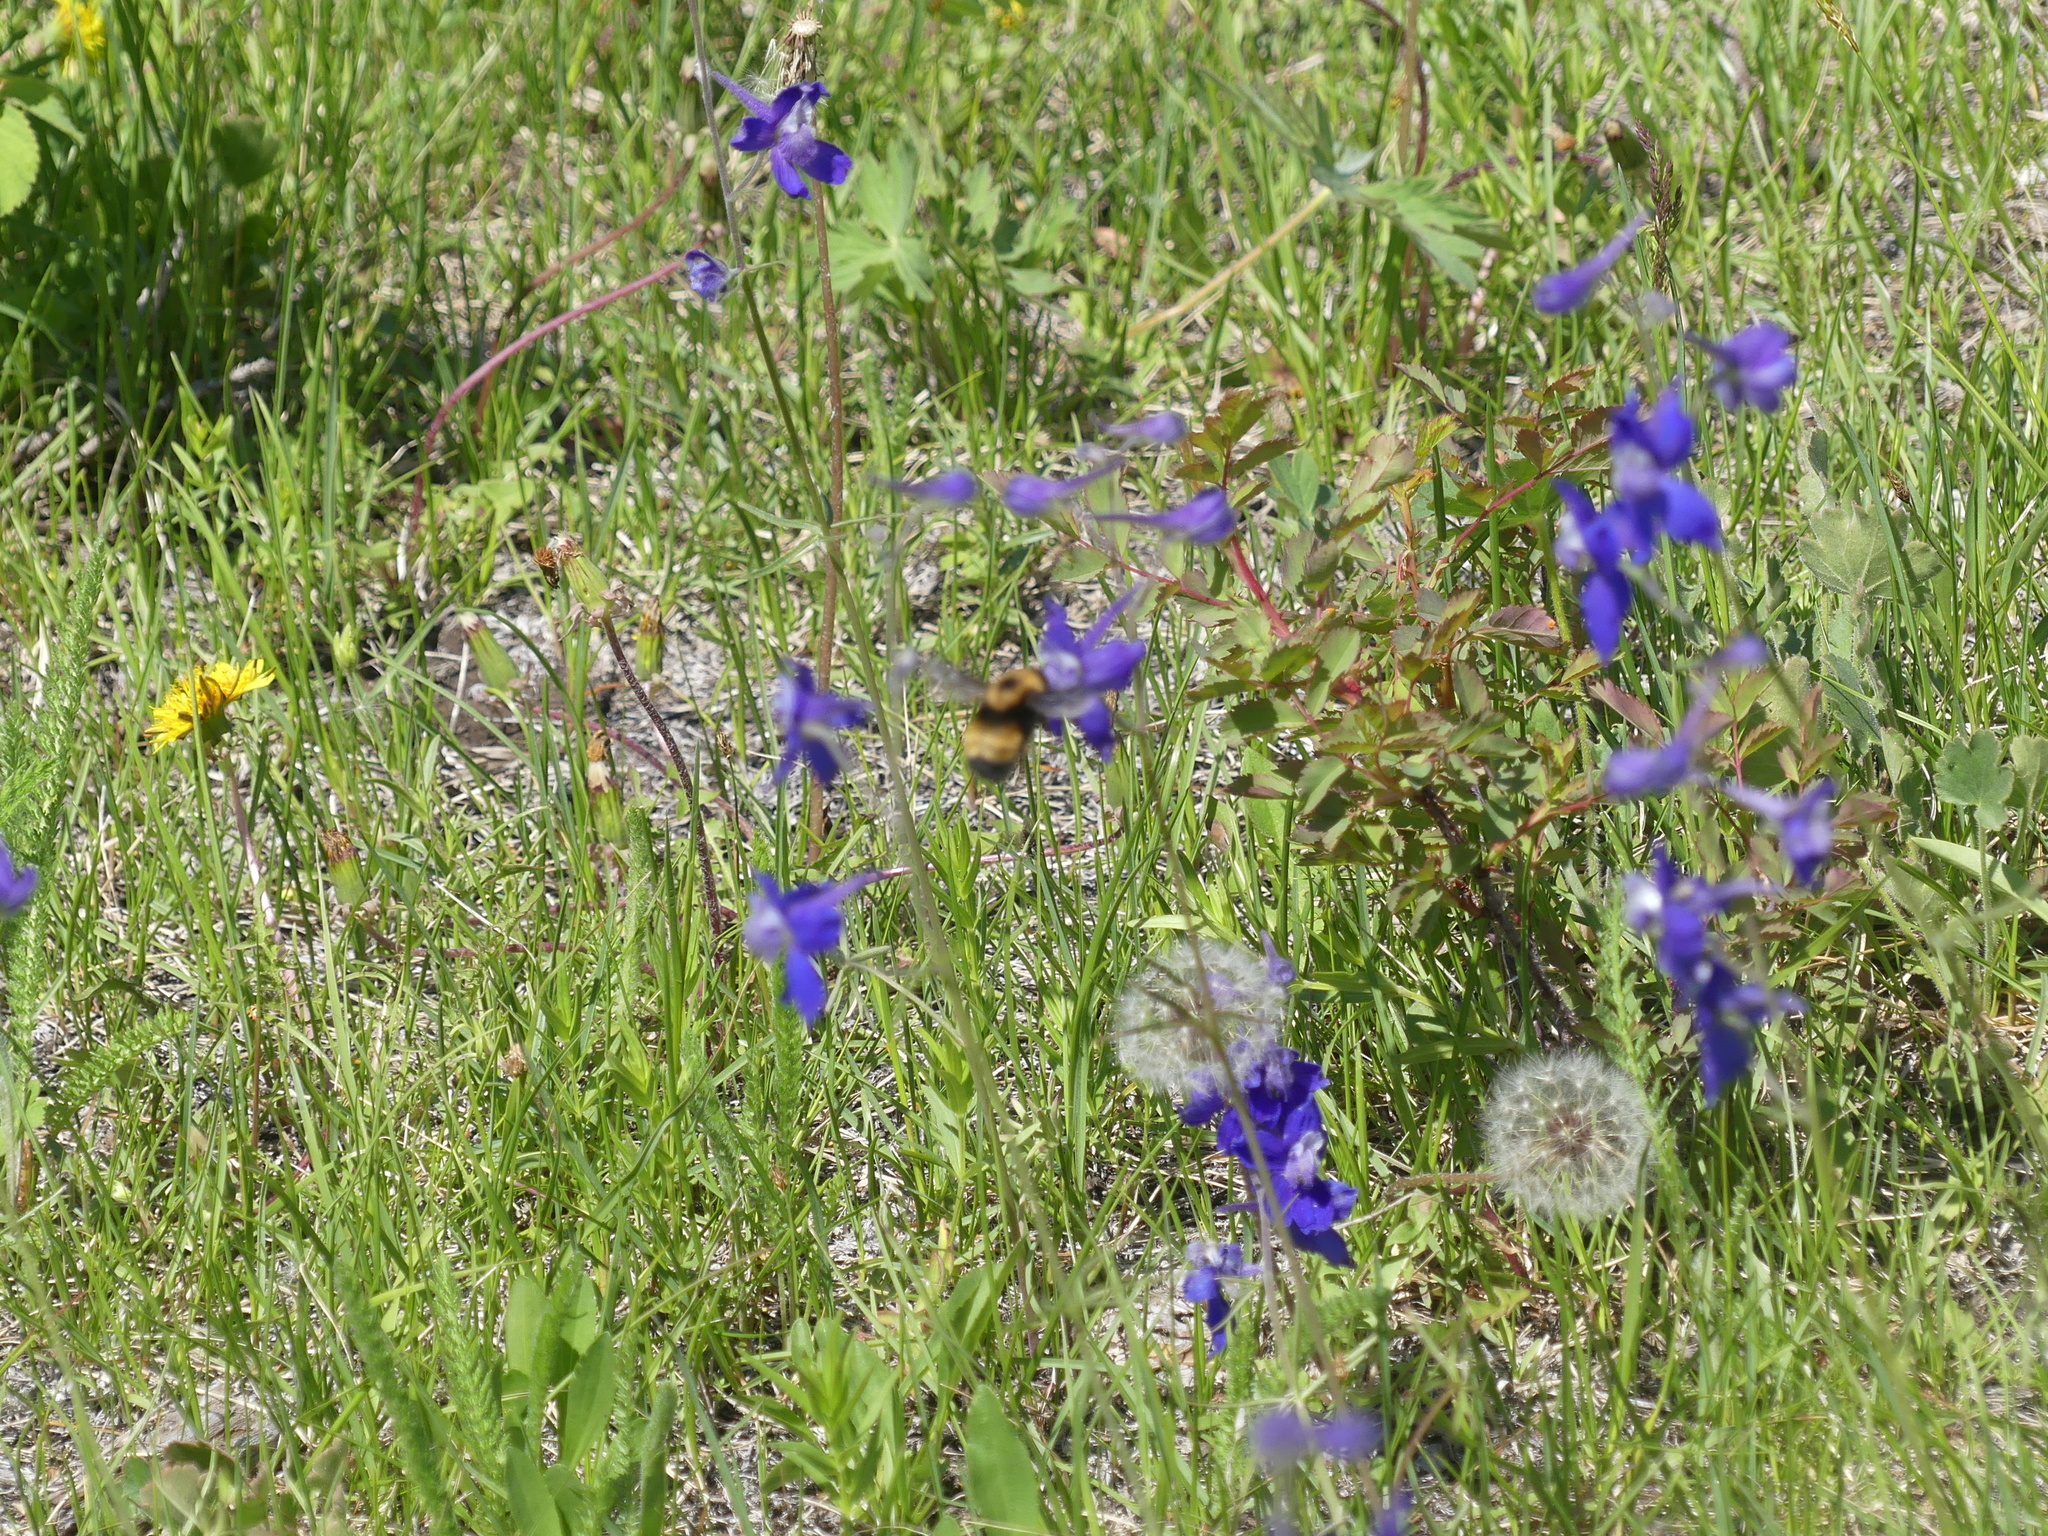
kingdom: Animalia
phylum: Arthropoda
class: Insecta
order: Hymenoptera
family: Apidae
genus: Bombus
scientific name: Bombus nevadensis
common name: Nevada bumble bee
